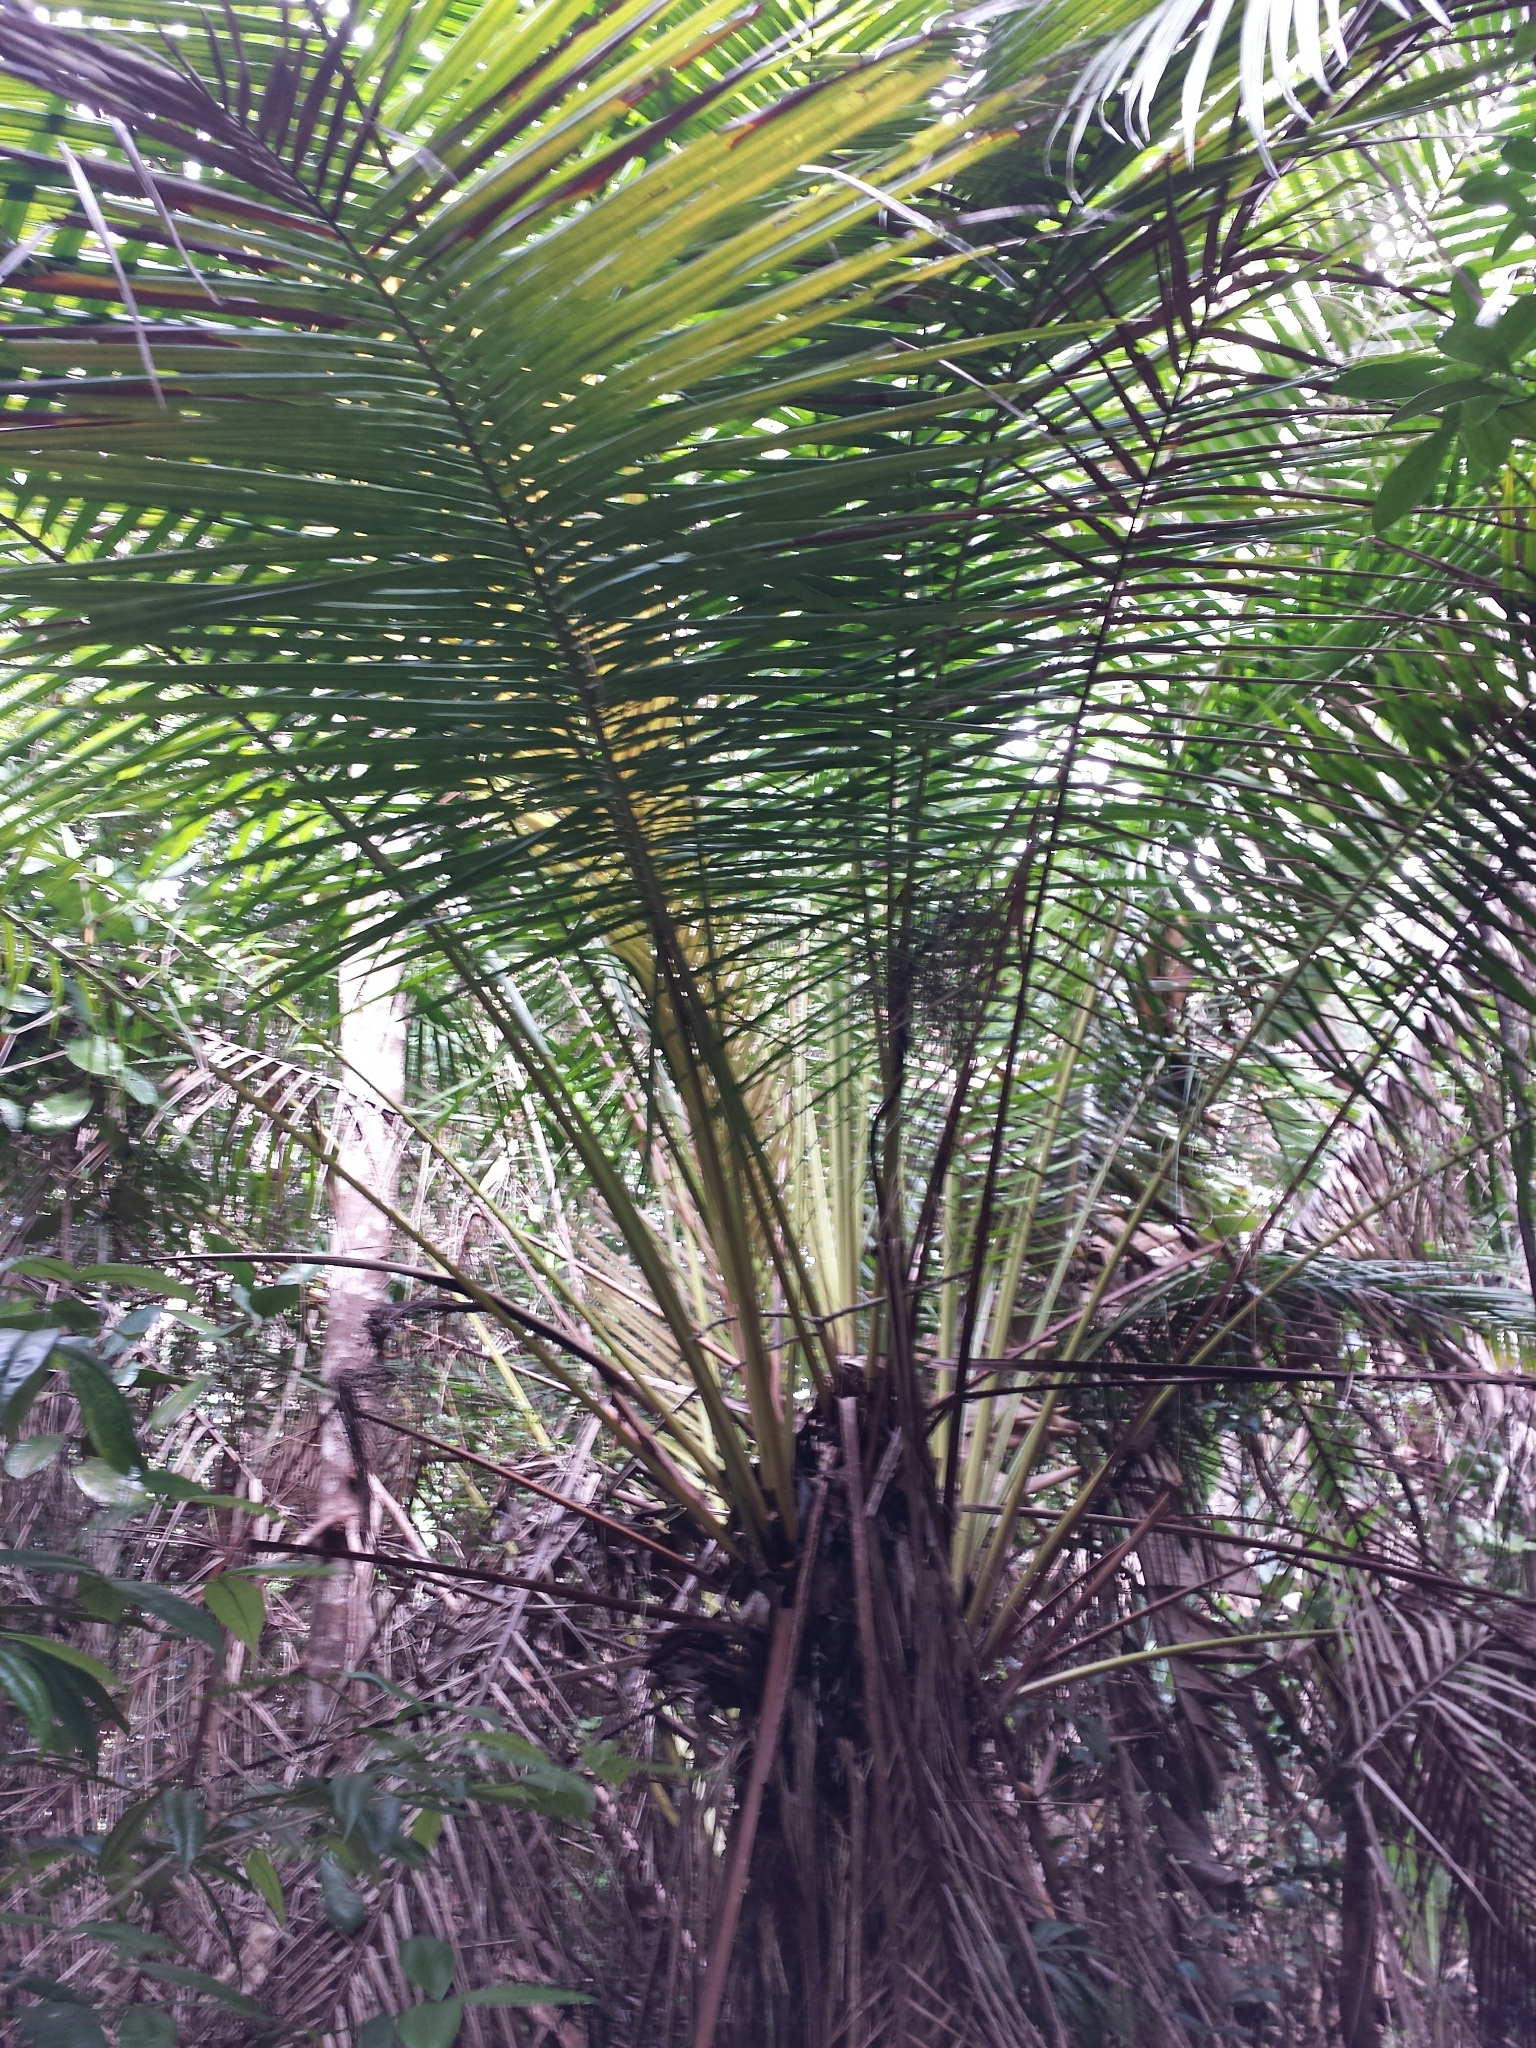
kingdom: Plantae
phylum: Tracheophyta
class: Liliopsida
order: Arecales
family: Arecaceae
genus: Dypsis
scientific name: Dypsis fibrosa
